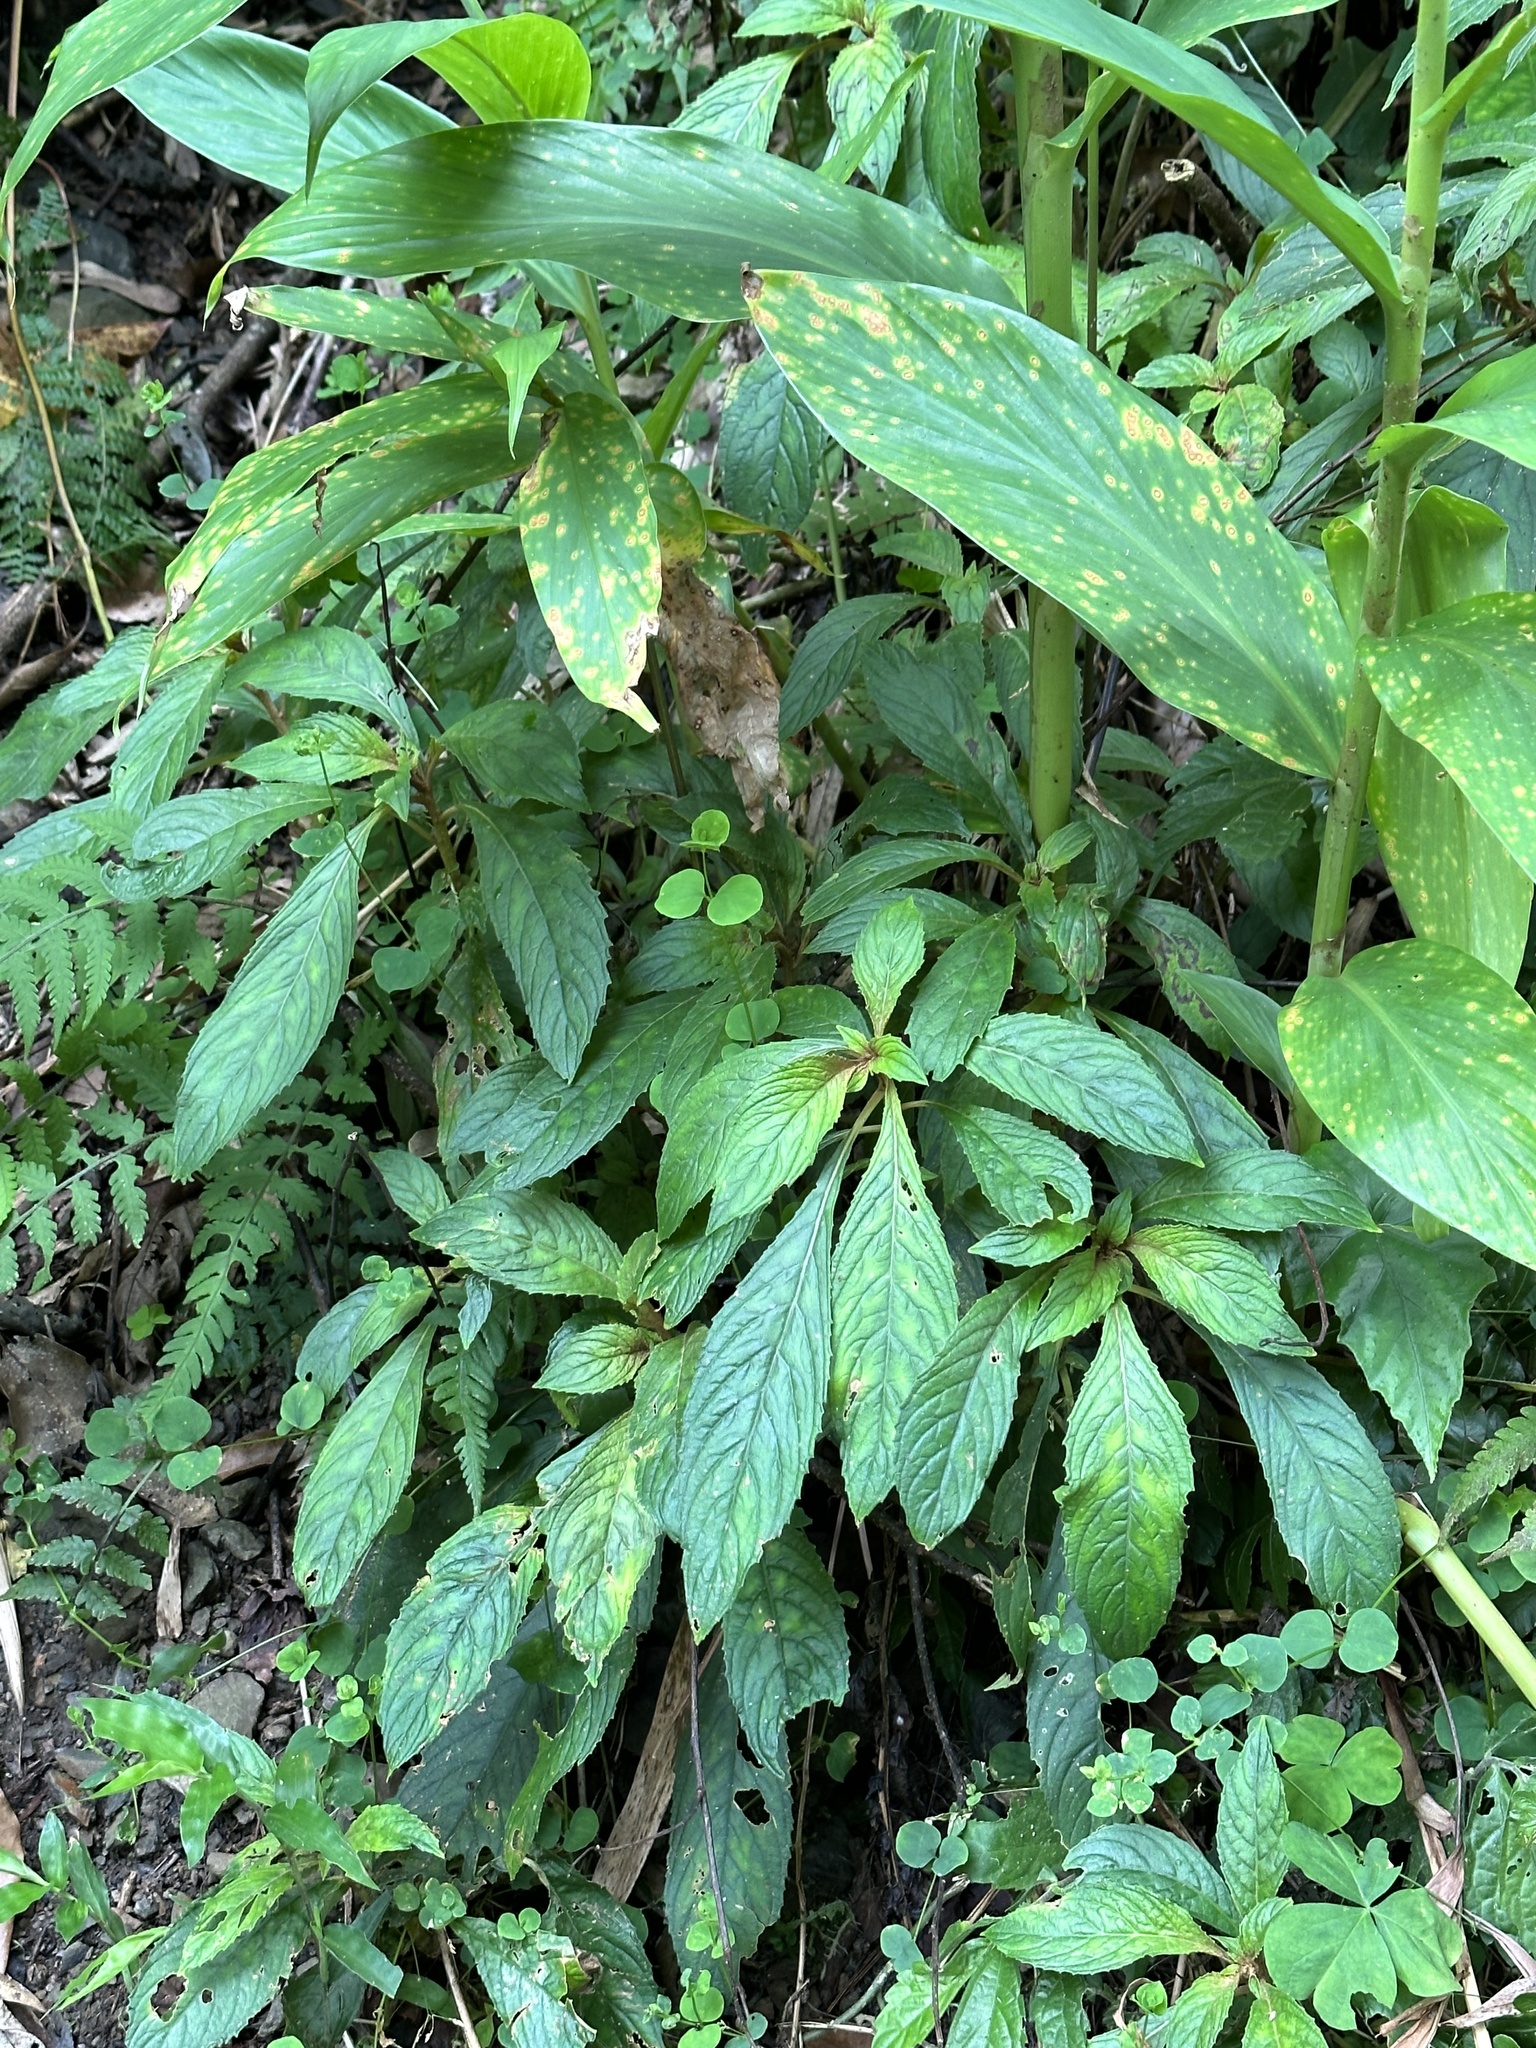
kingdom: Plantae
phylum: Tracheophyta
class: Magnoliopsida
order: Lamiales
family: Gesneriaceae
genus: Rhynchotechum
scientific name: Rhynchotechum discolor
